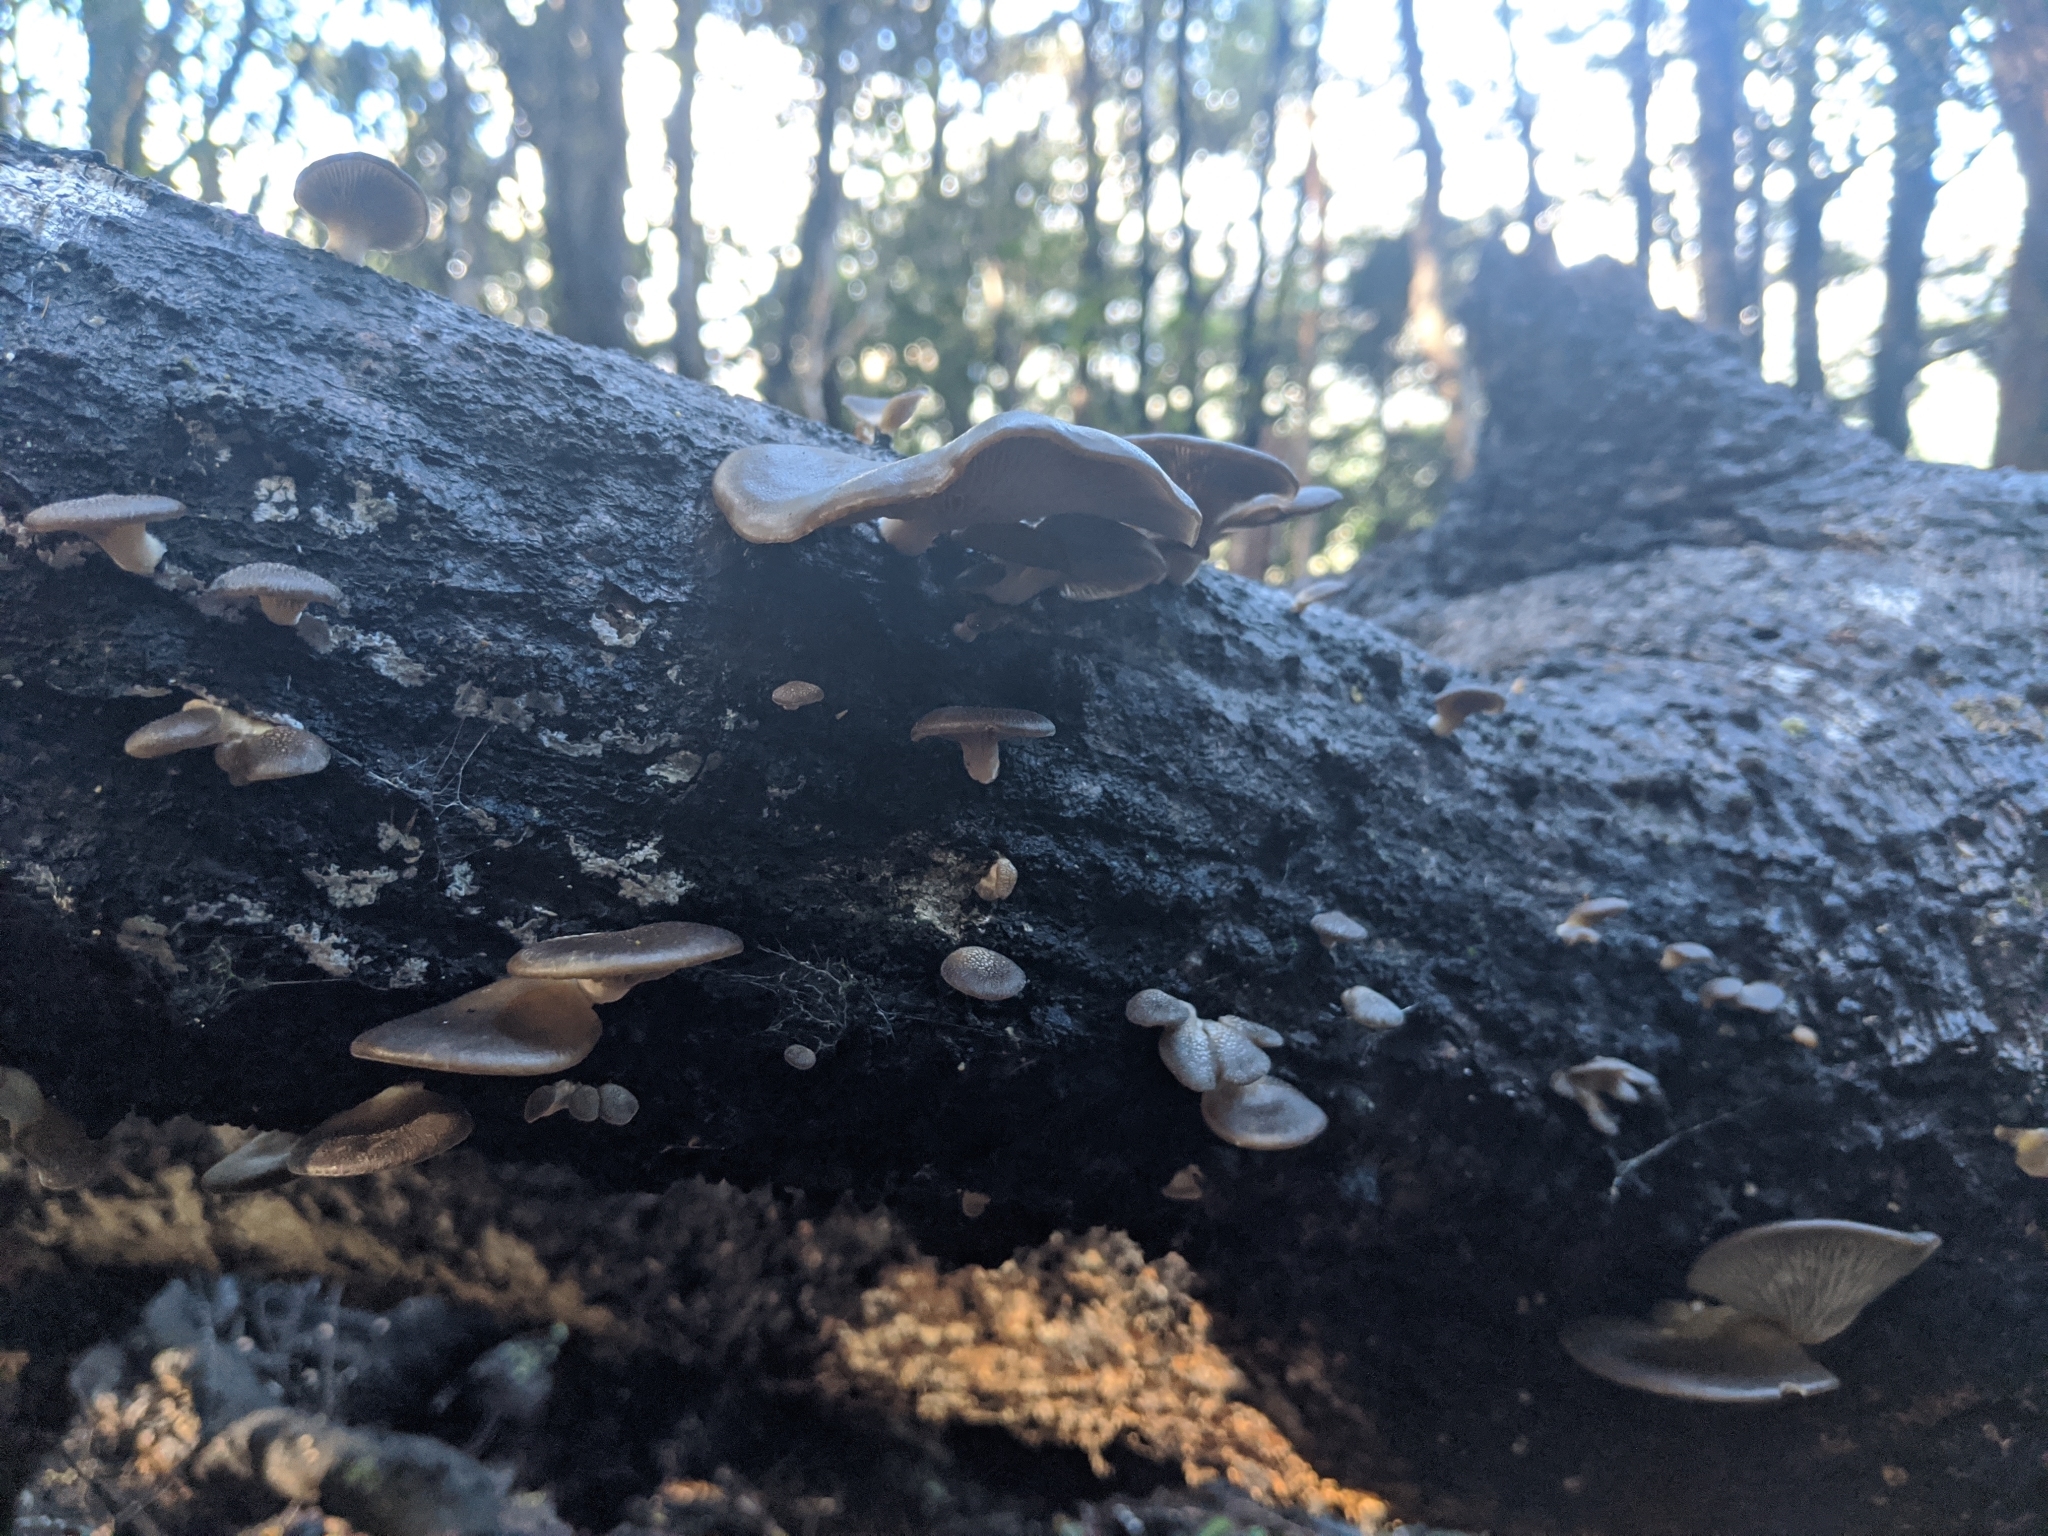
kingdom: Fungi
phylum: Basidiomycota
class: Agaricomycetes
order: Agaricales
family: Pleurotaceae
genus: Pleurotus
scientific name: Pleurotus purpureo-olivaceus
